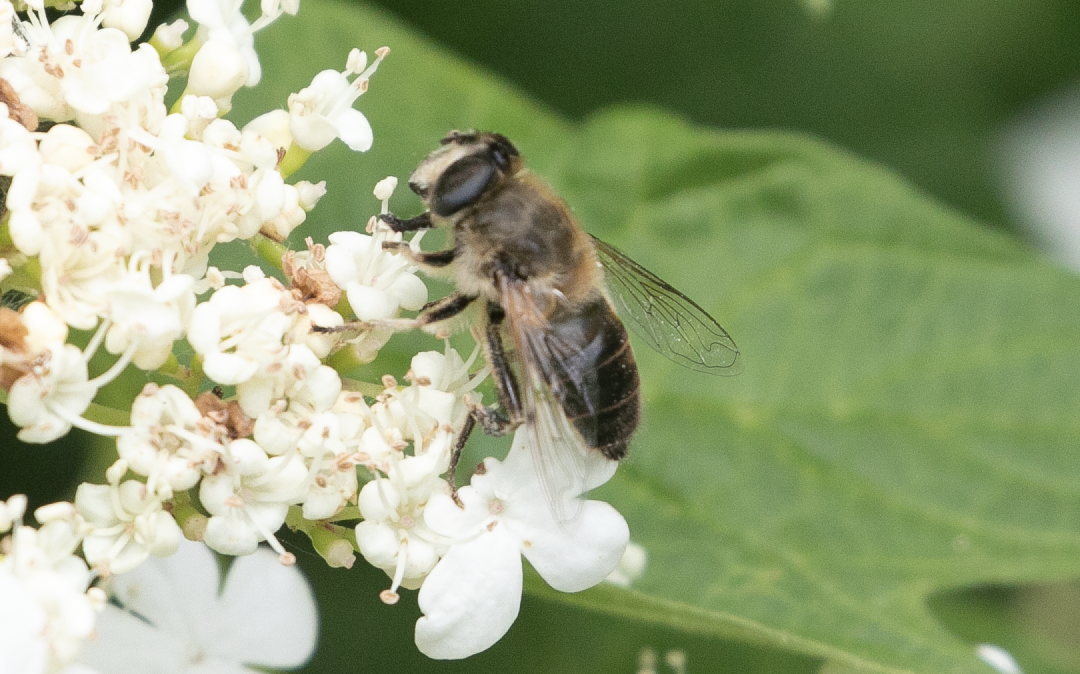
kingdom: Animalia
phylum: Arthropoda
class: Insecta
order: Diptera
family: Syrphidae
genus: Eristalis
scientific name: Eristalis tenax
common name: Drone fly
